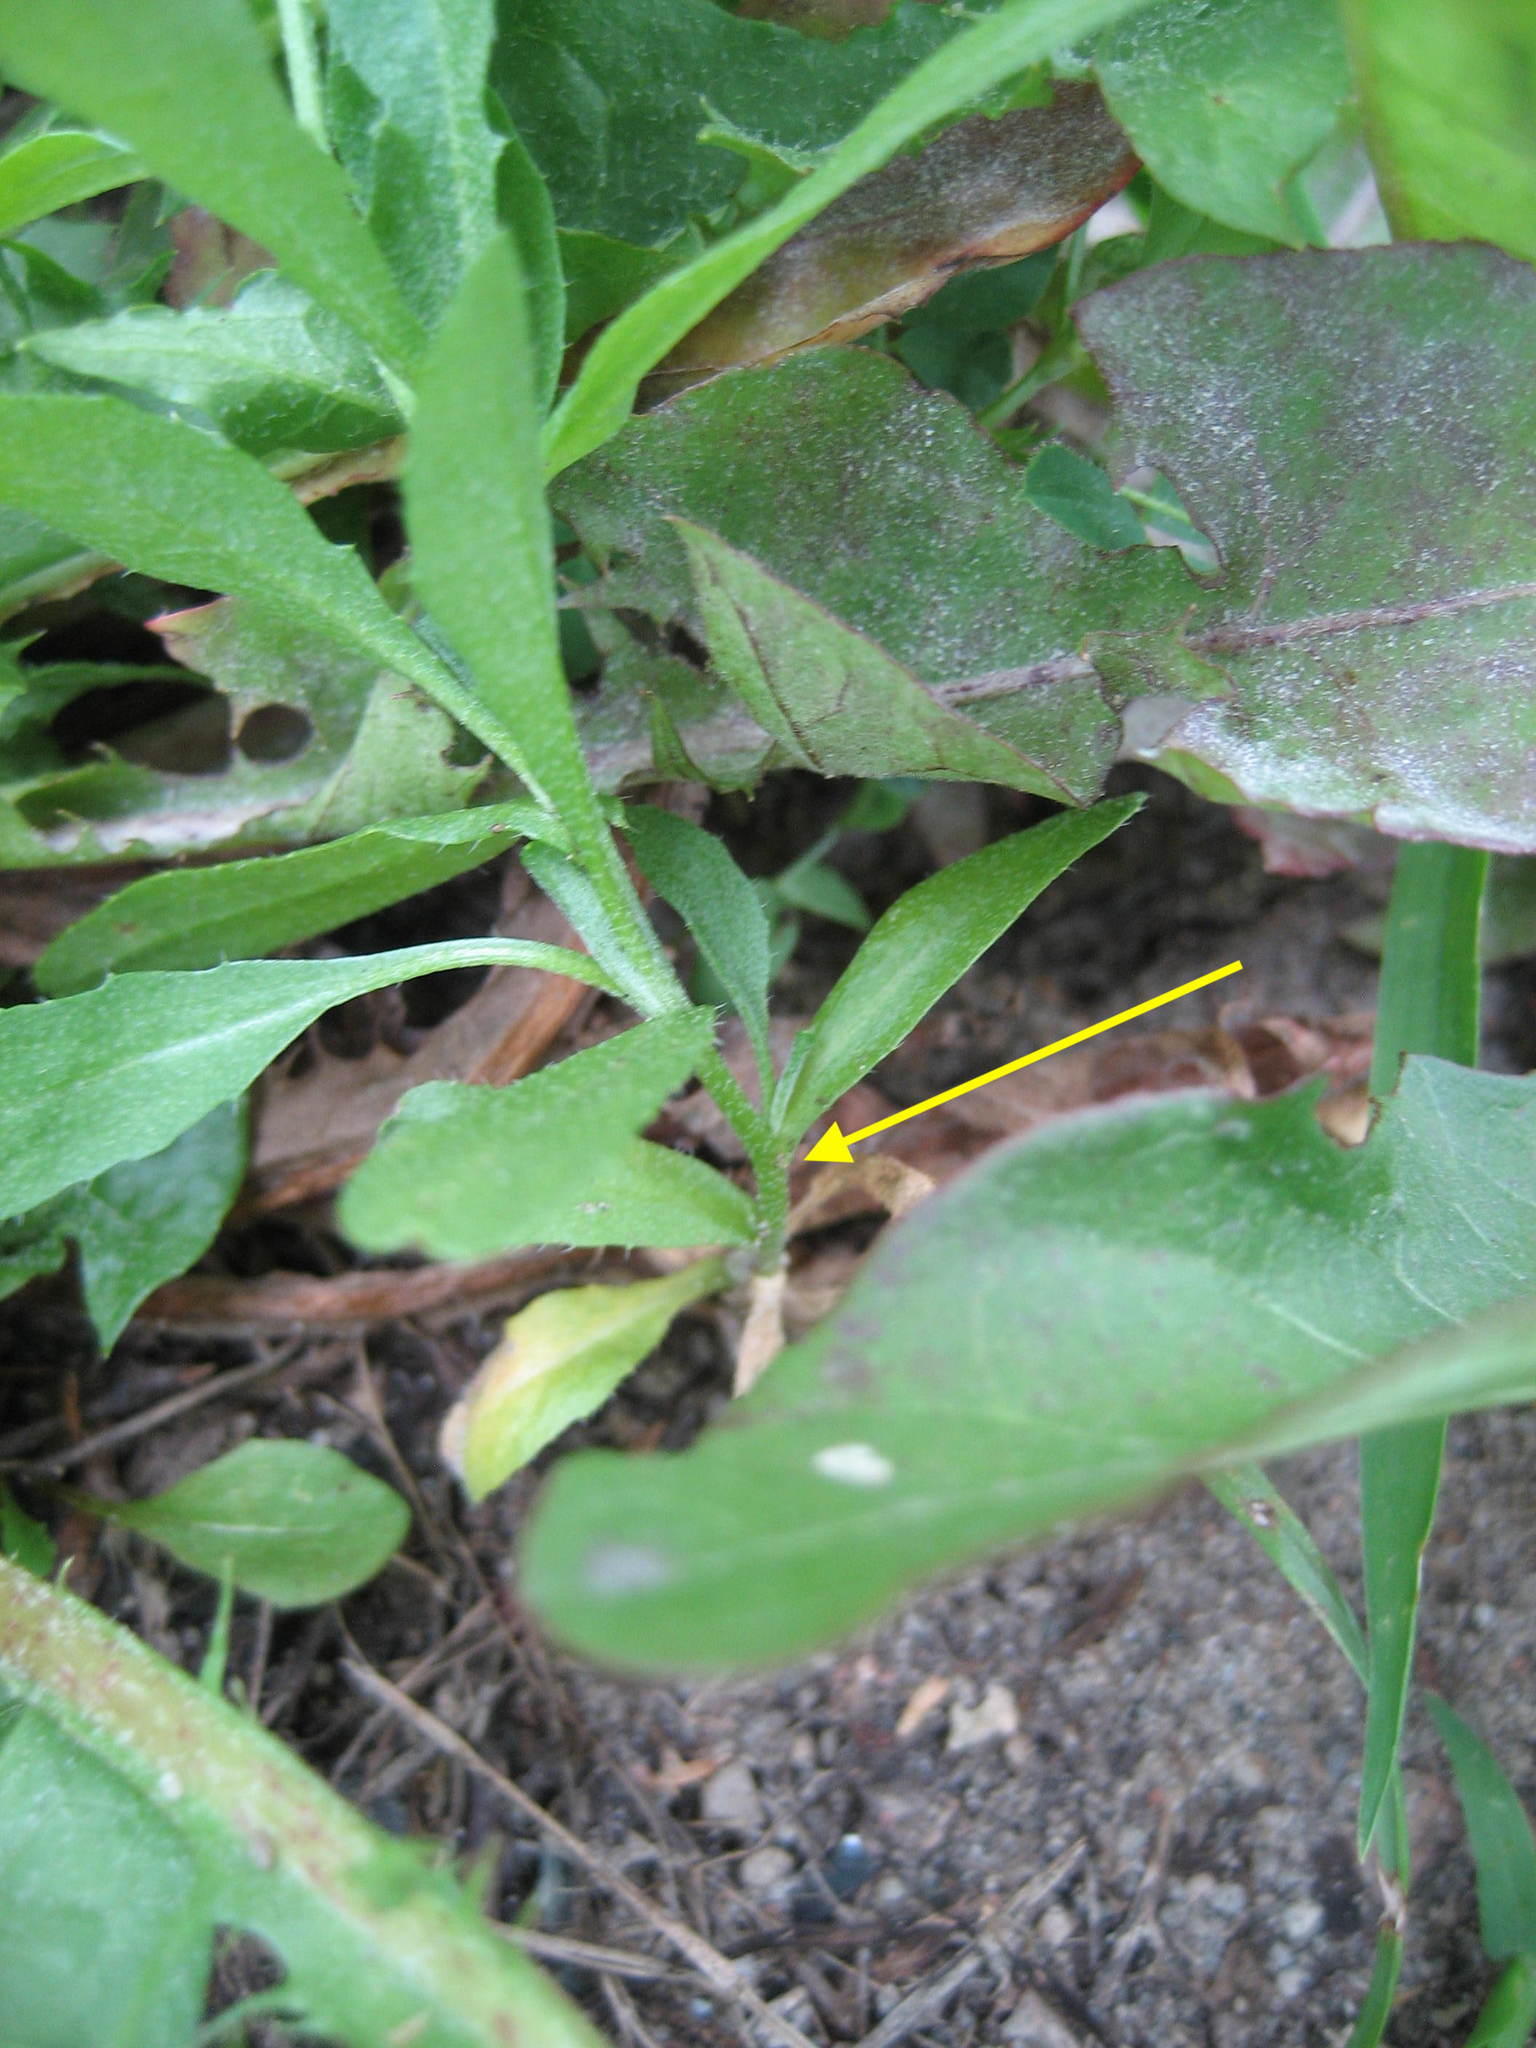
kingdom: Plantae
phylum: Tracheophyta
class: Magnoliopsida
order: Brassicales
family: Brassicaceae
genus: Capsella
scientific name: Capsella bursa-pastoris
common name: Shepherd's purse
